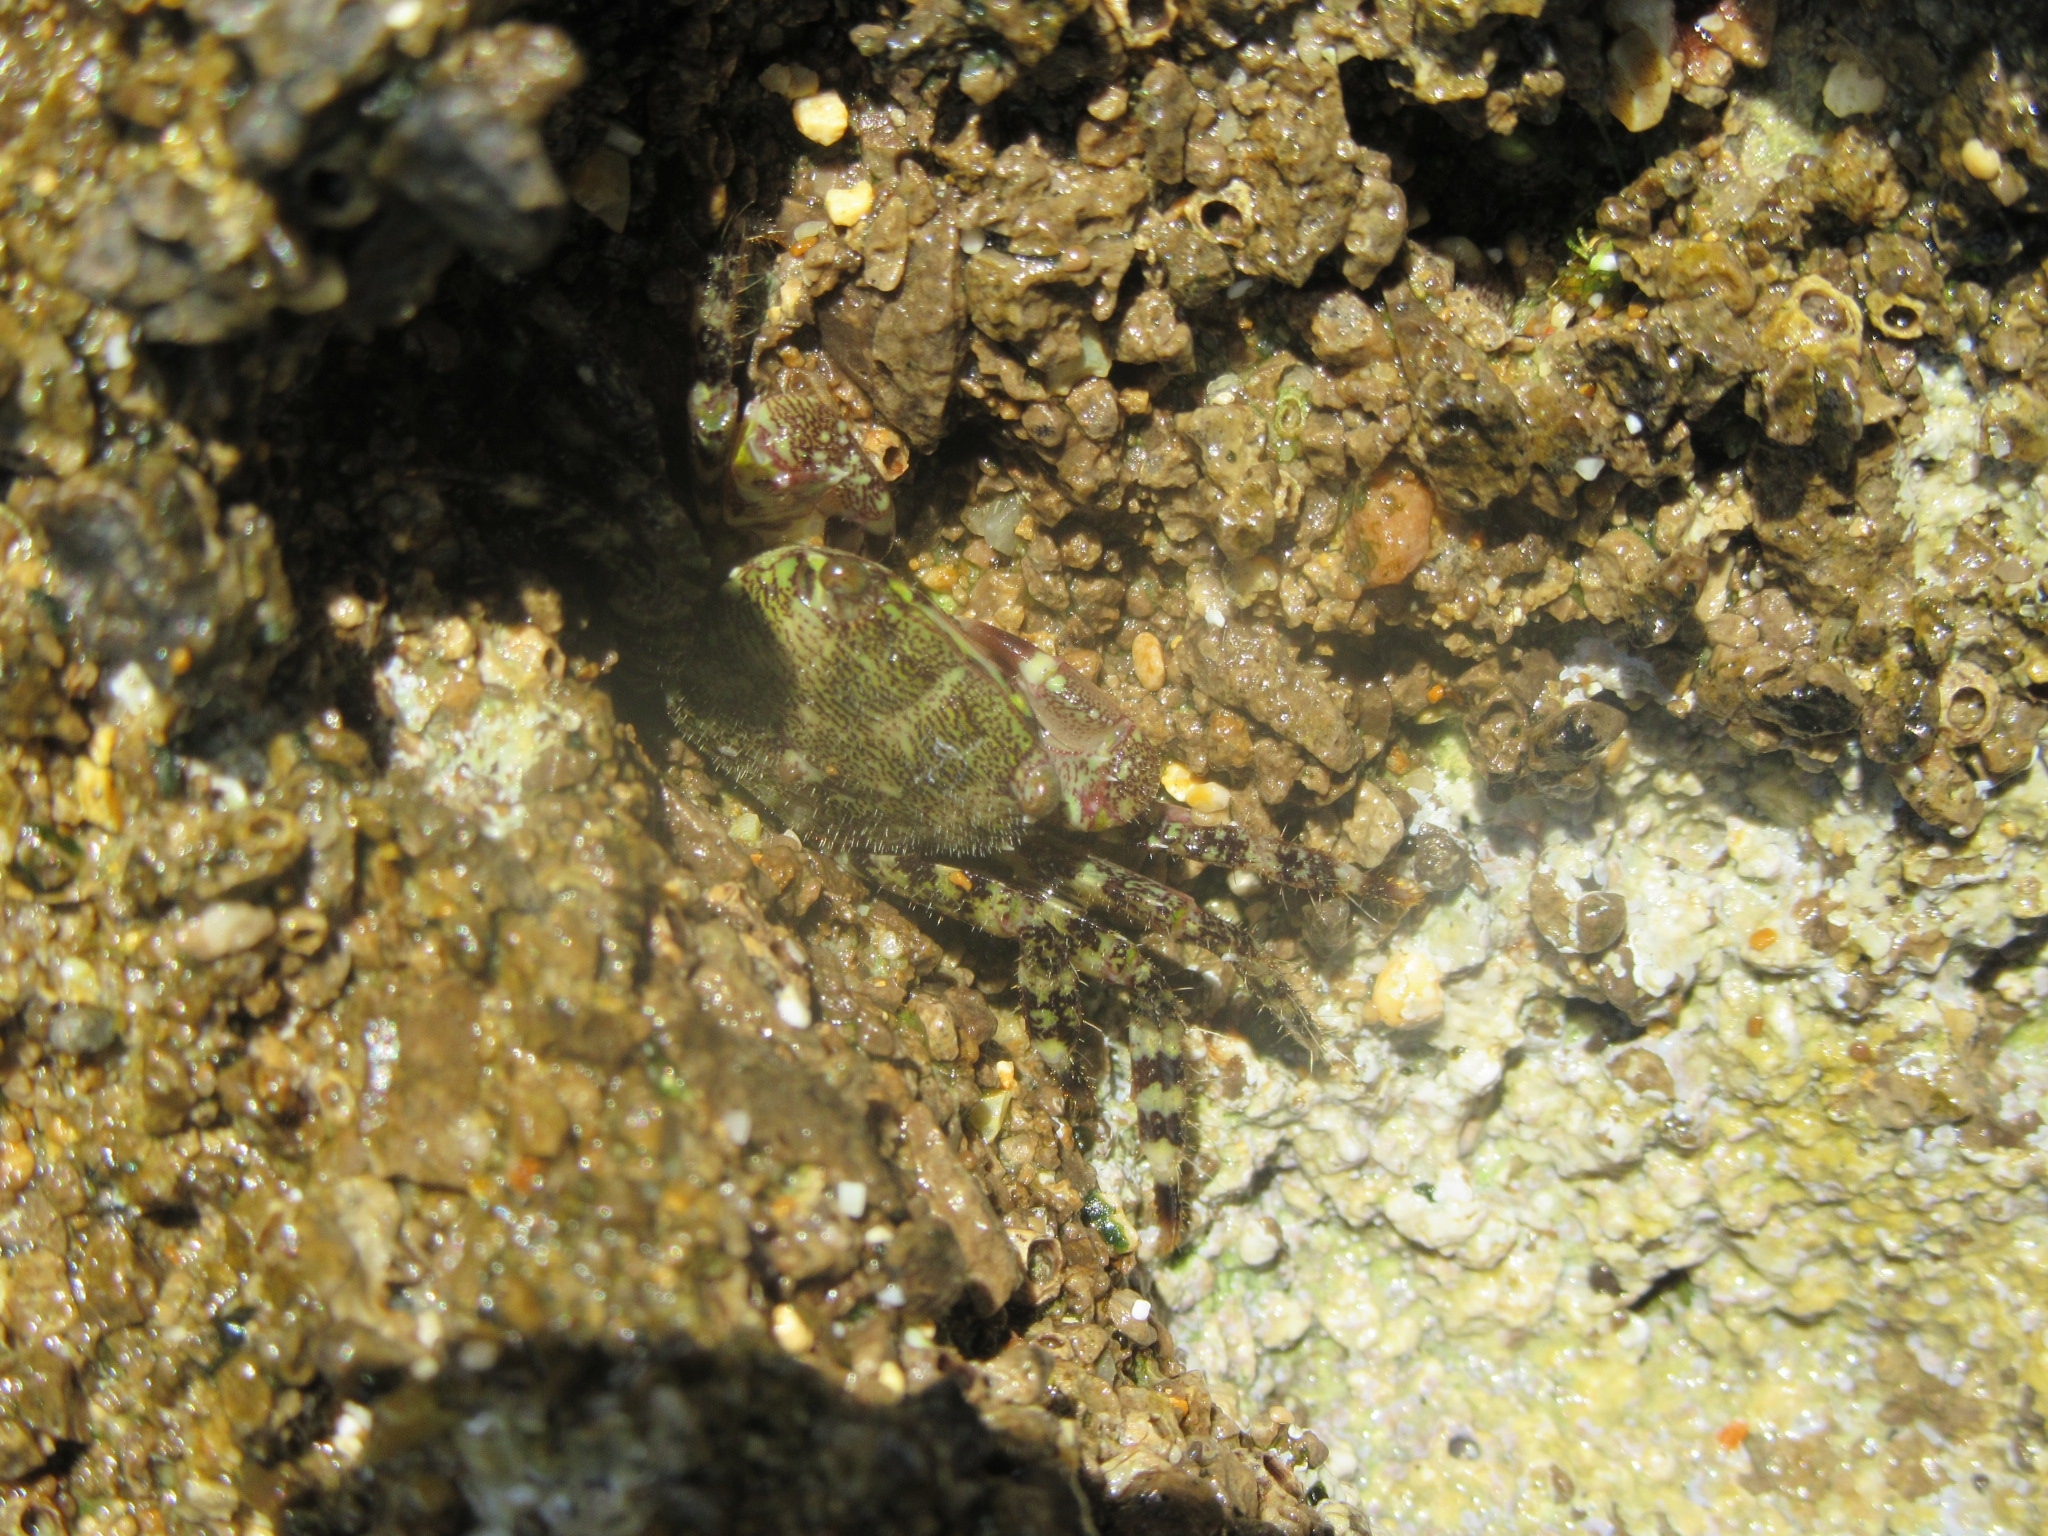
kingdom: Animalia
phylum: Arthropoda
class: Malacostraca
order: Decapoda
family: Grapsidae
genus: Pachygrapsus
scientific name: Pachygrapsus marmoratus
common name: Marbled rock crab
